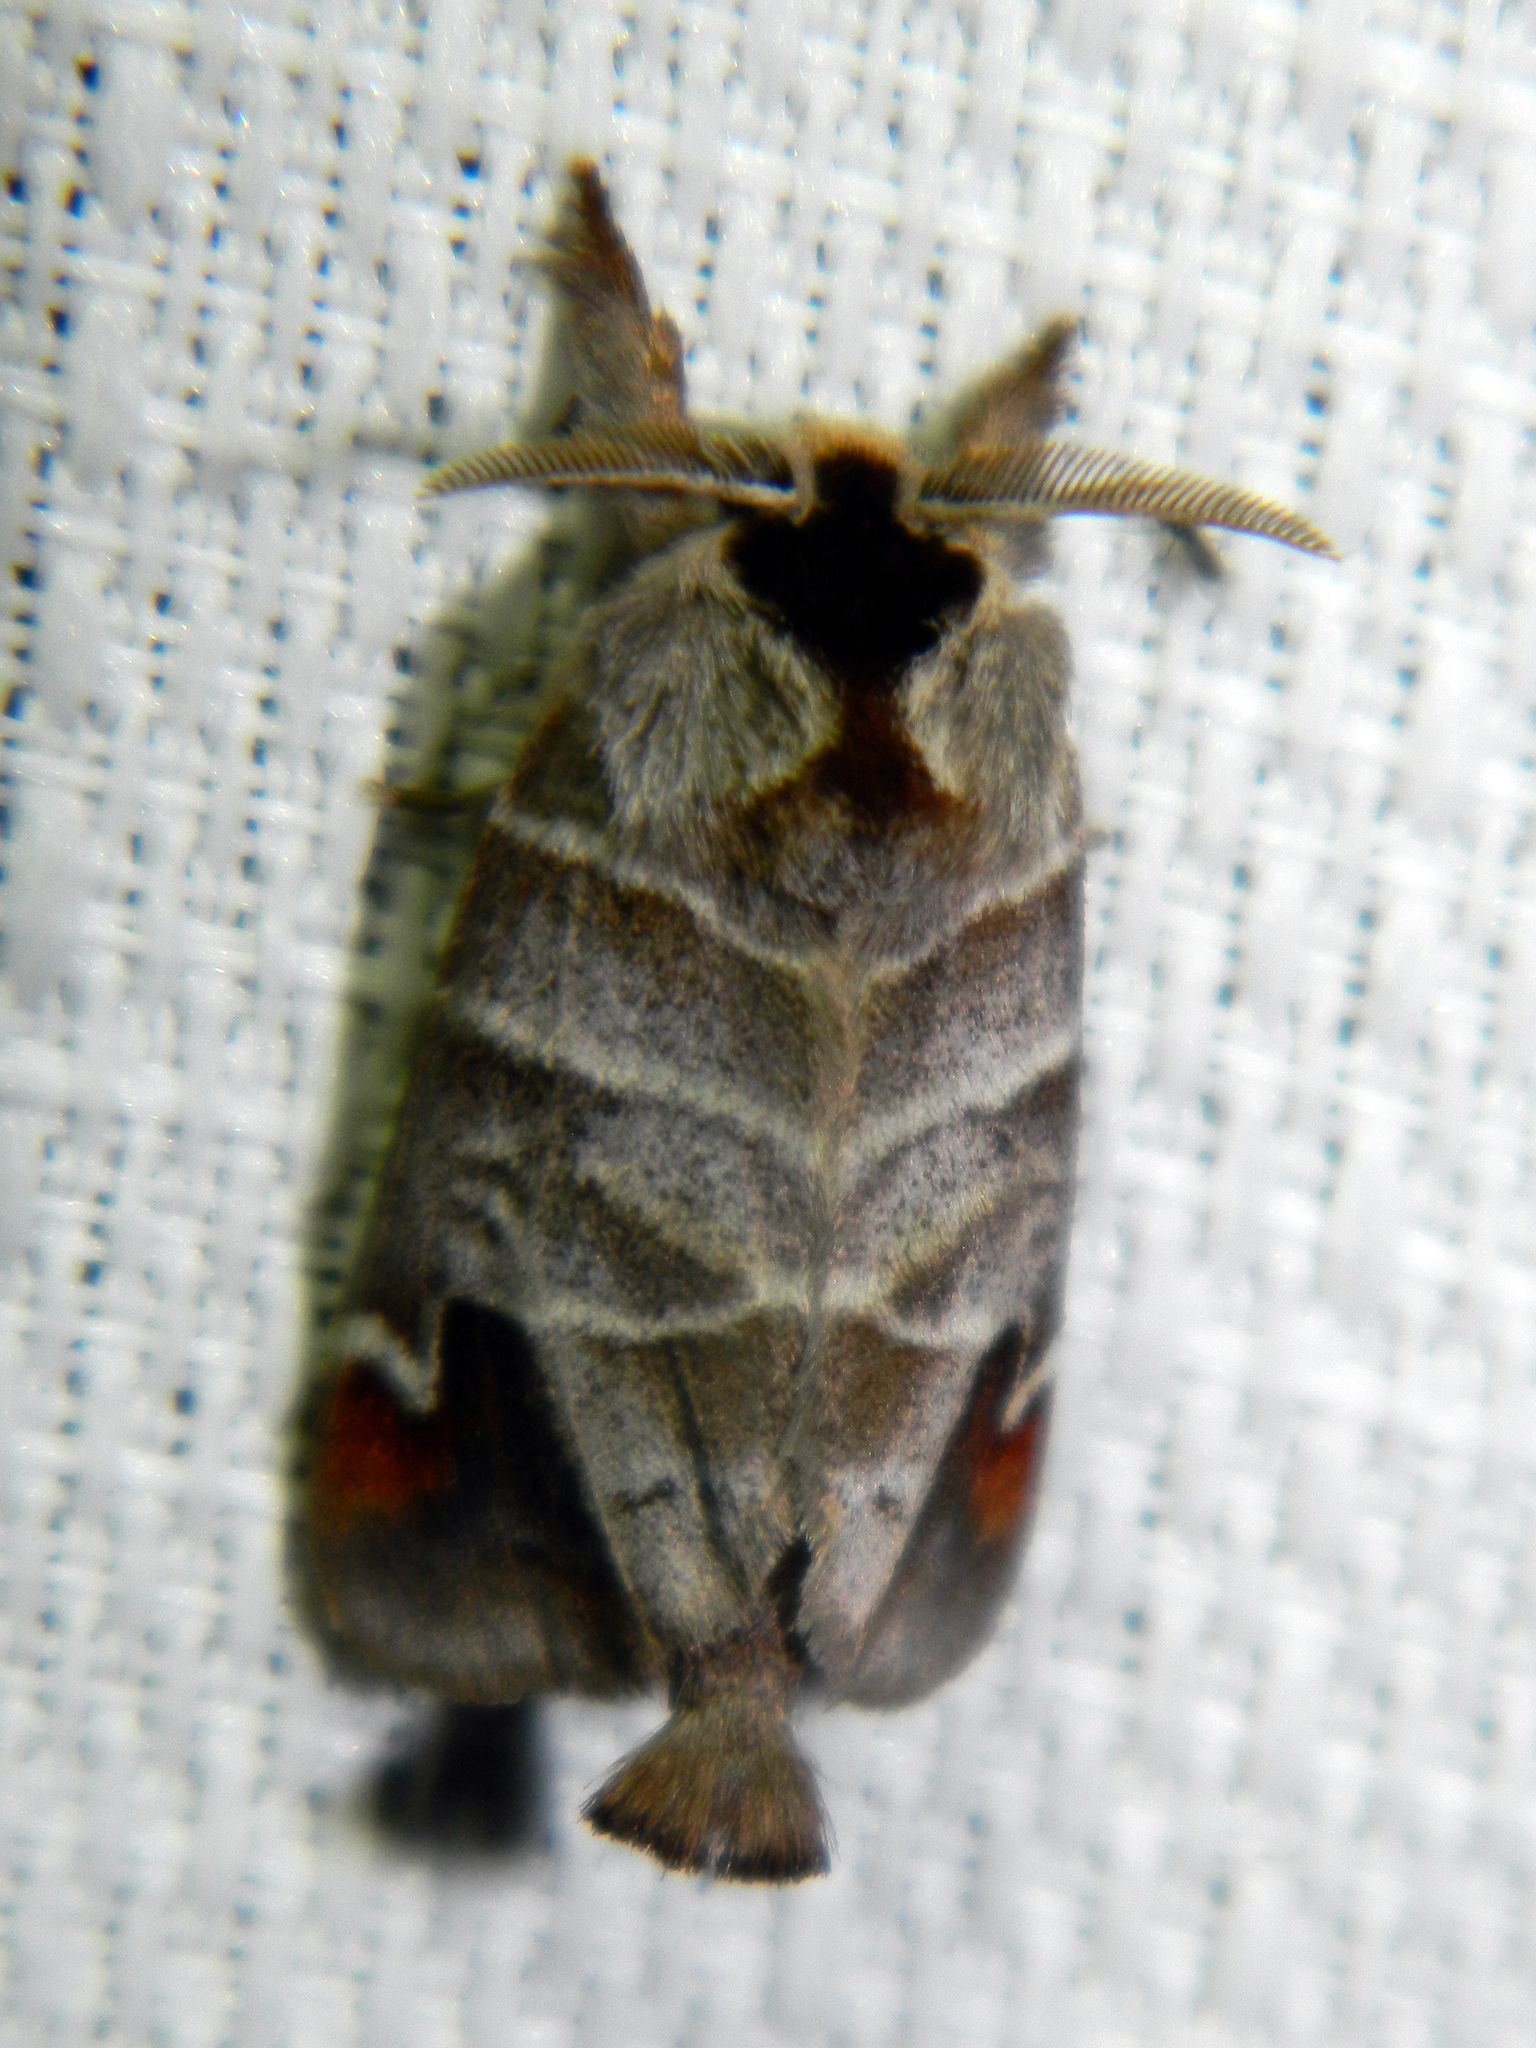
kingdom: Animalia
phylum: Arthropoda
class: Insecta
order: Lepidoptera
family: Notodontidae
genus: Clostera
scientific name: Clostera albosigma
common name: Sigmoid prominent
